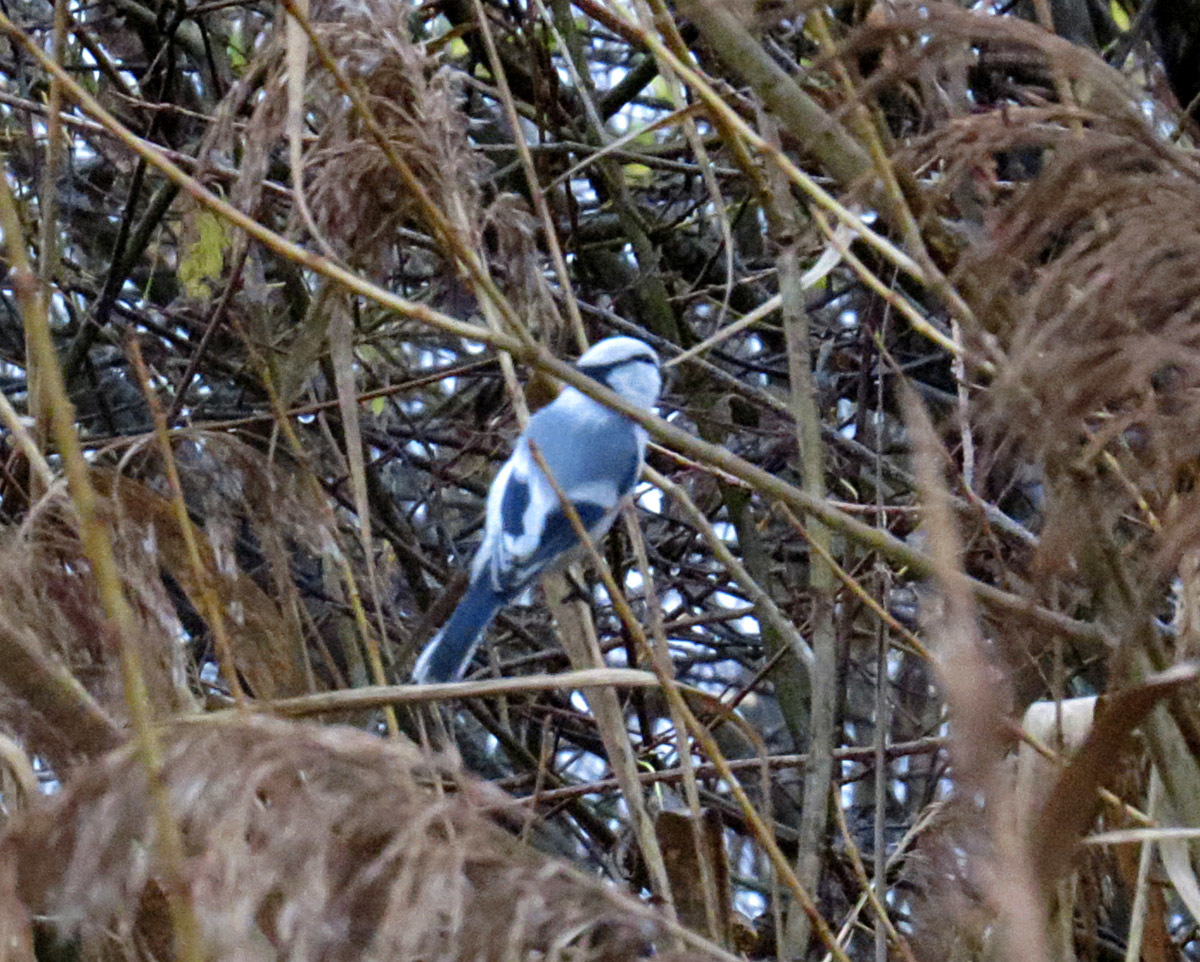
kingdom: Animalia
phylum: Chordata
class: Aves
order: Passeriformes
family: Paridae
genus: Cyanistes
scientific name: Cyanistes cyanus
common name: Azure tit
